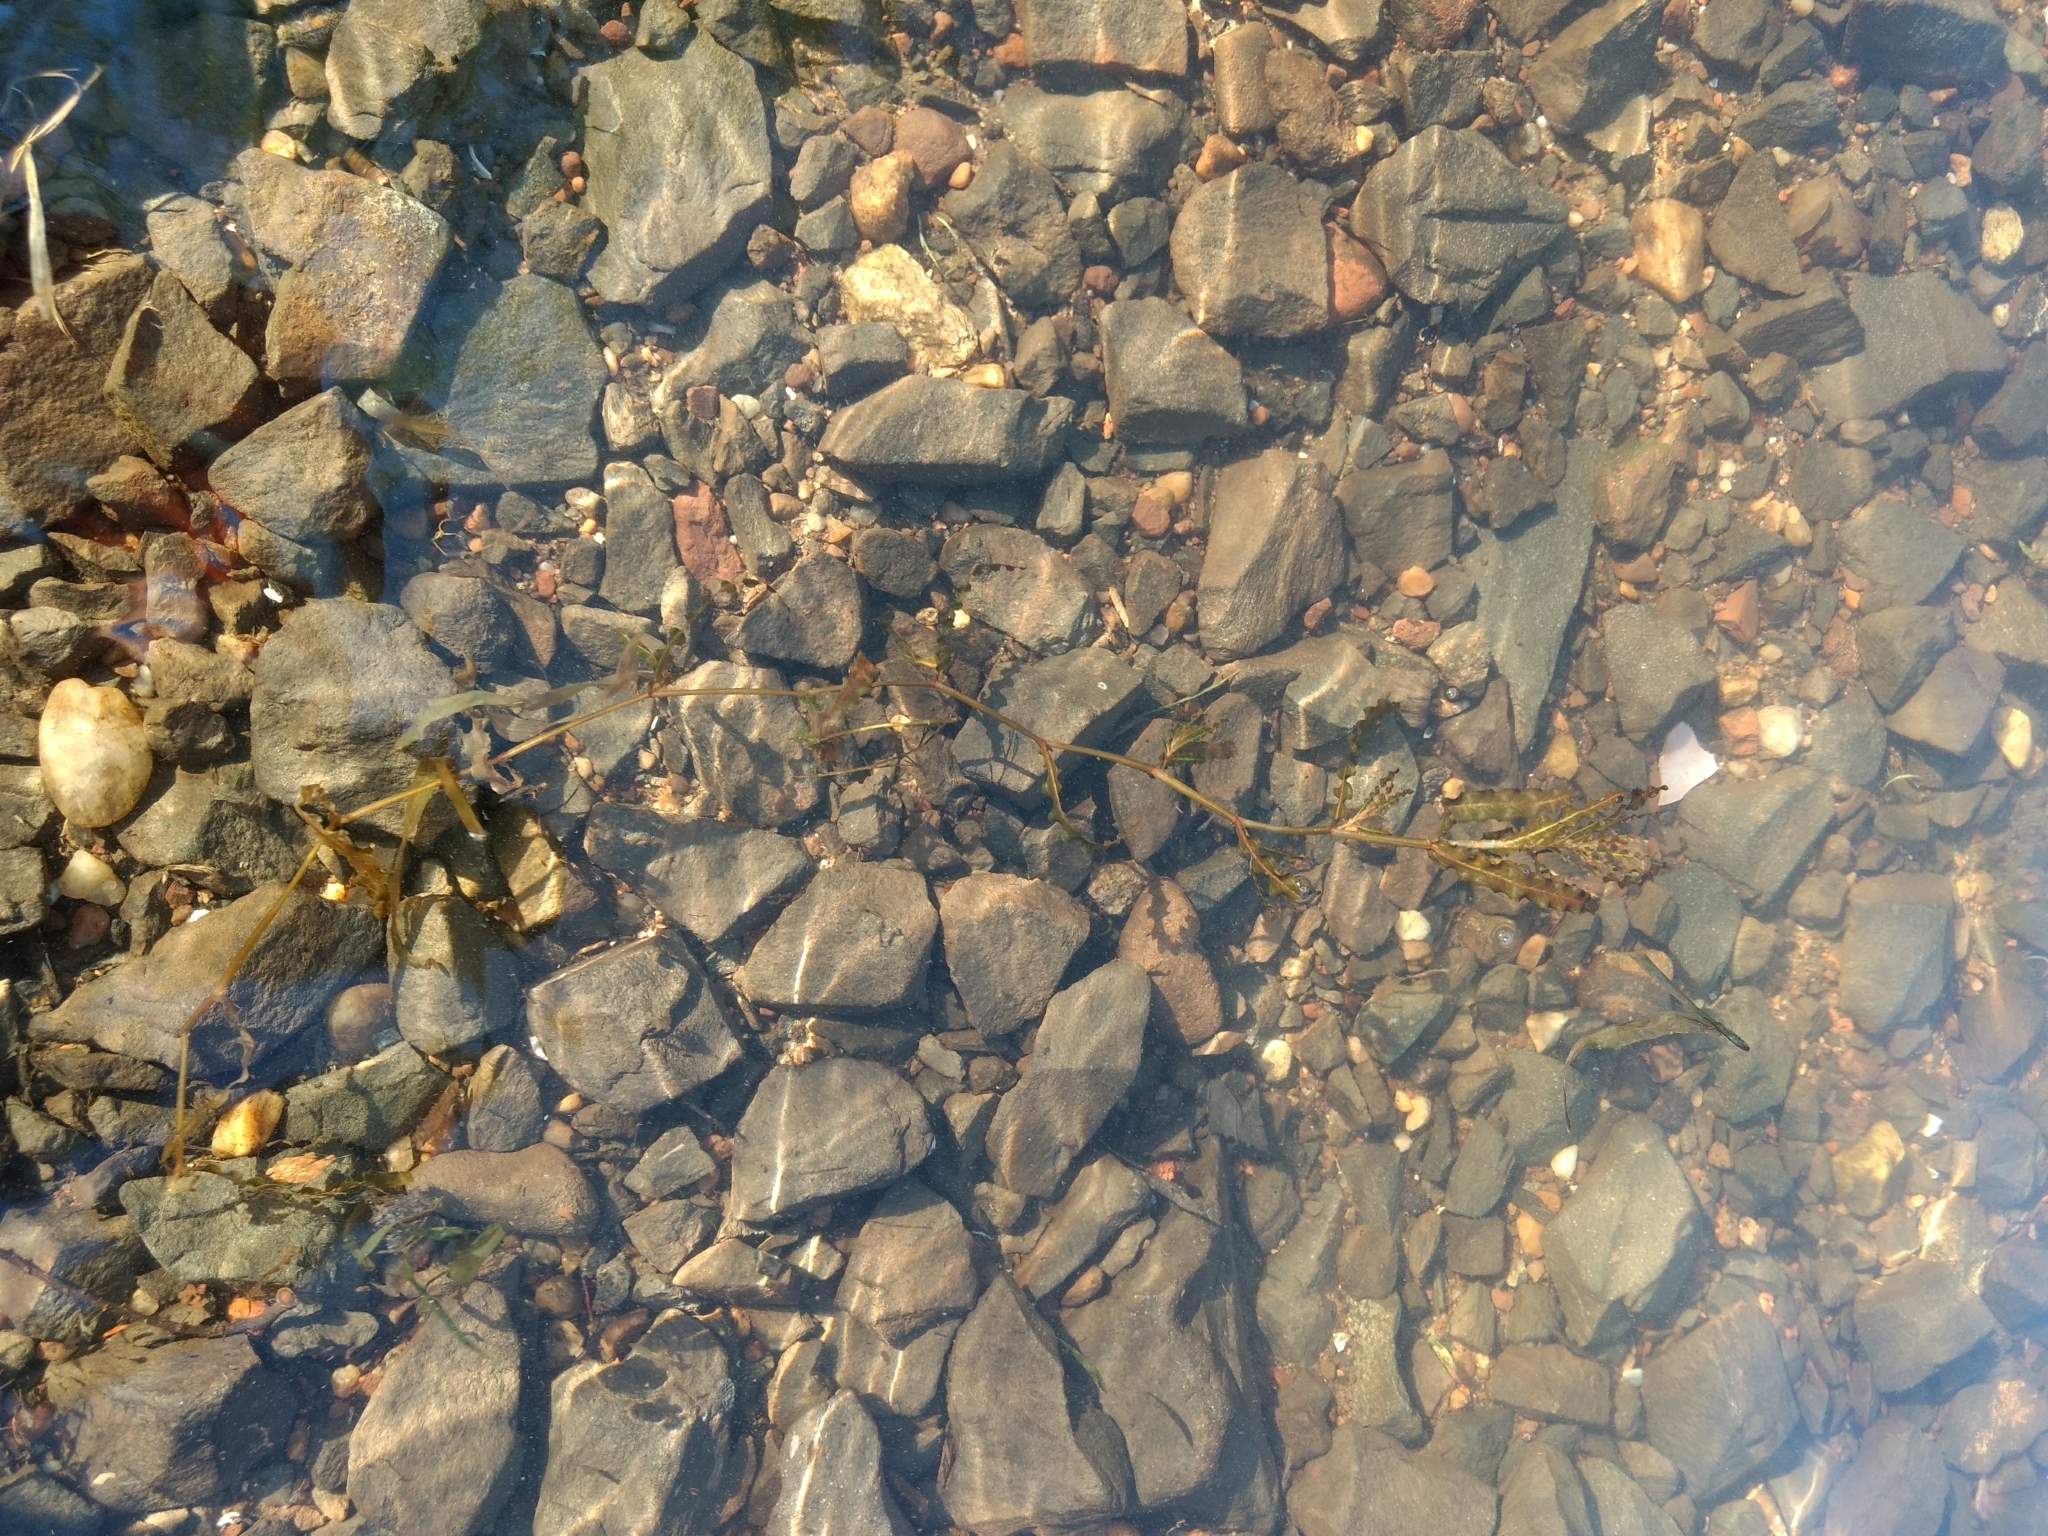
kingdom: Plantae
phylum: Tracheophyta
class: Liliopsida
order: Alismatales
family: Potamogetonaceae
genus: Potamogeton
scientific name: Potamogeton crispus
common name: Curled pondweed
